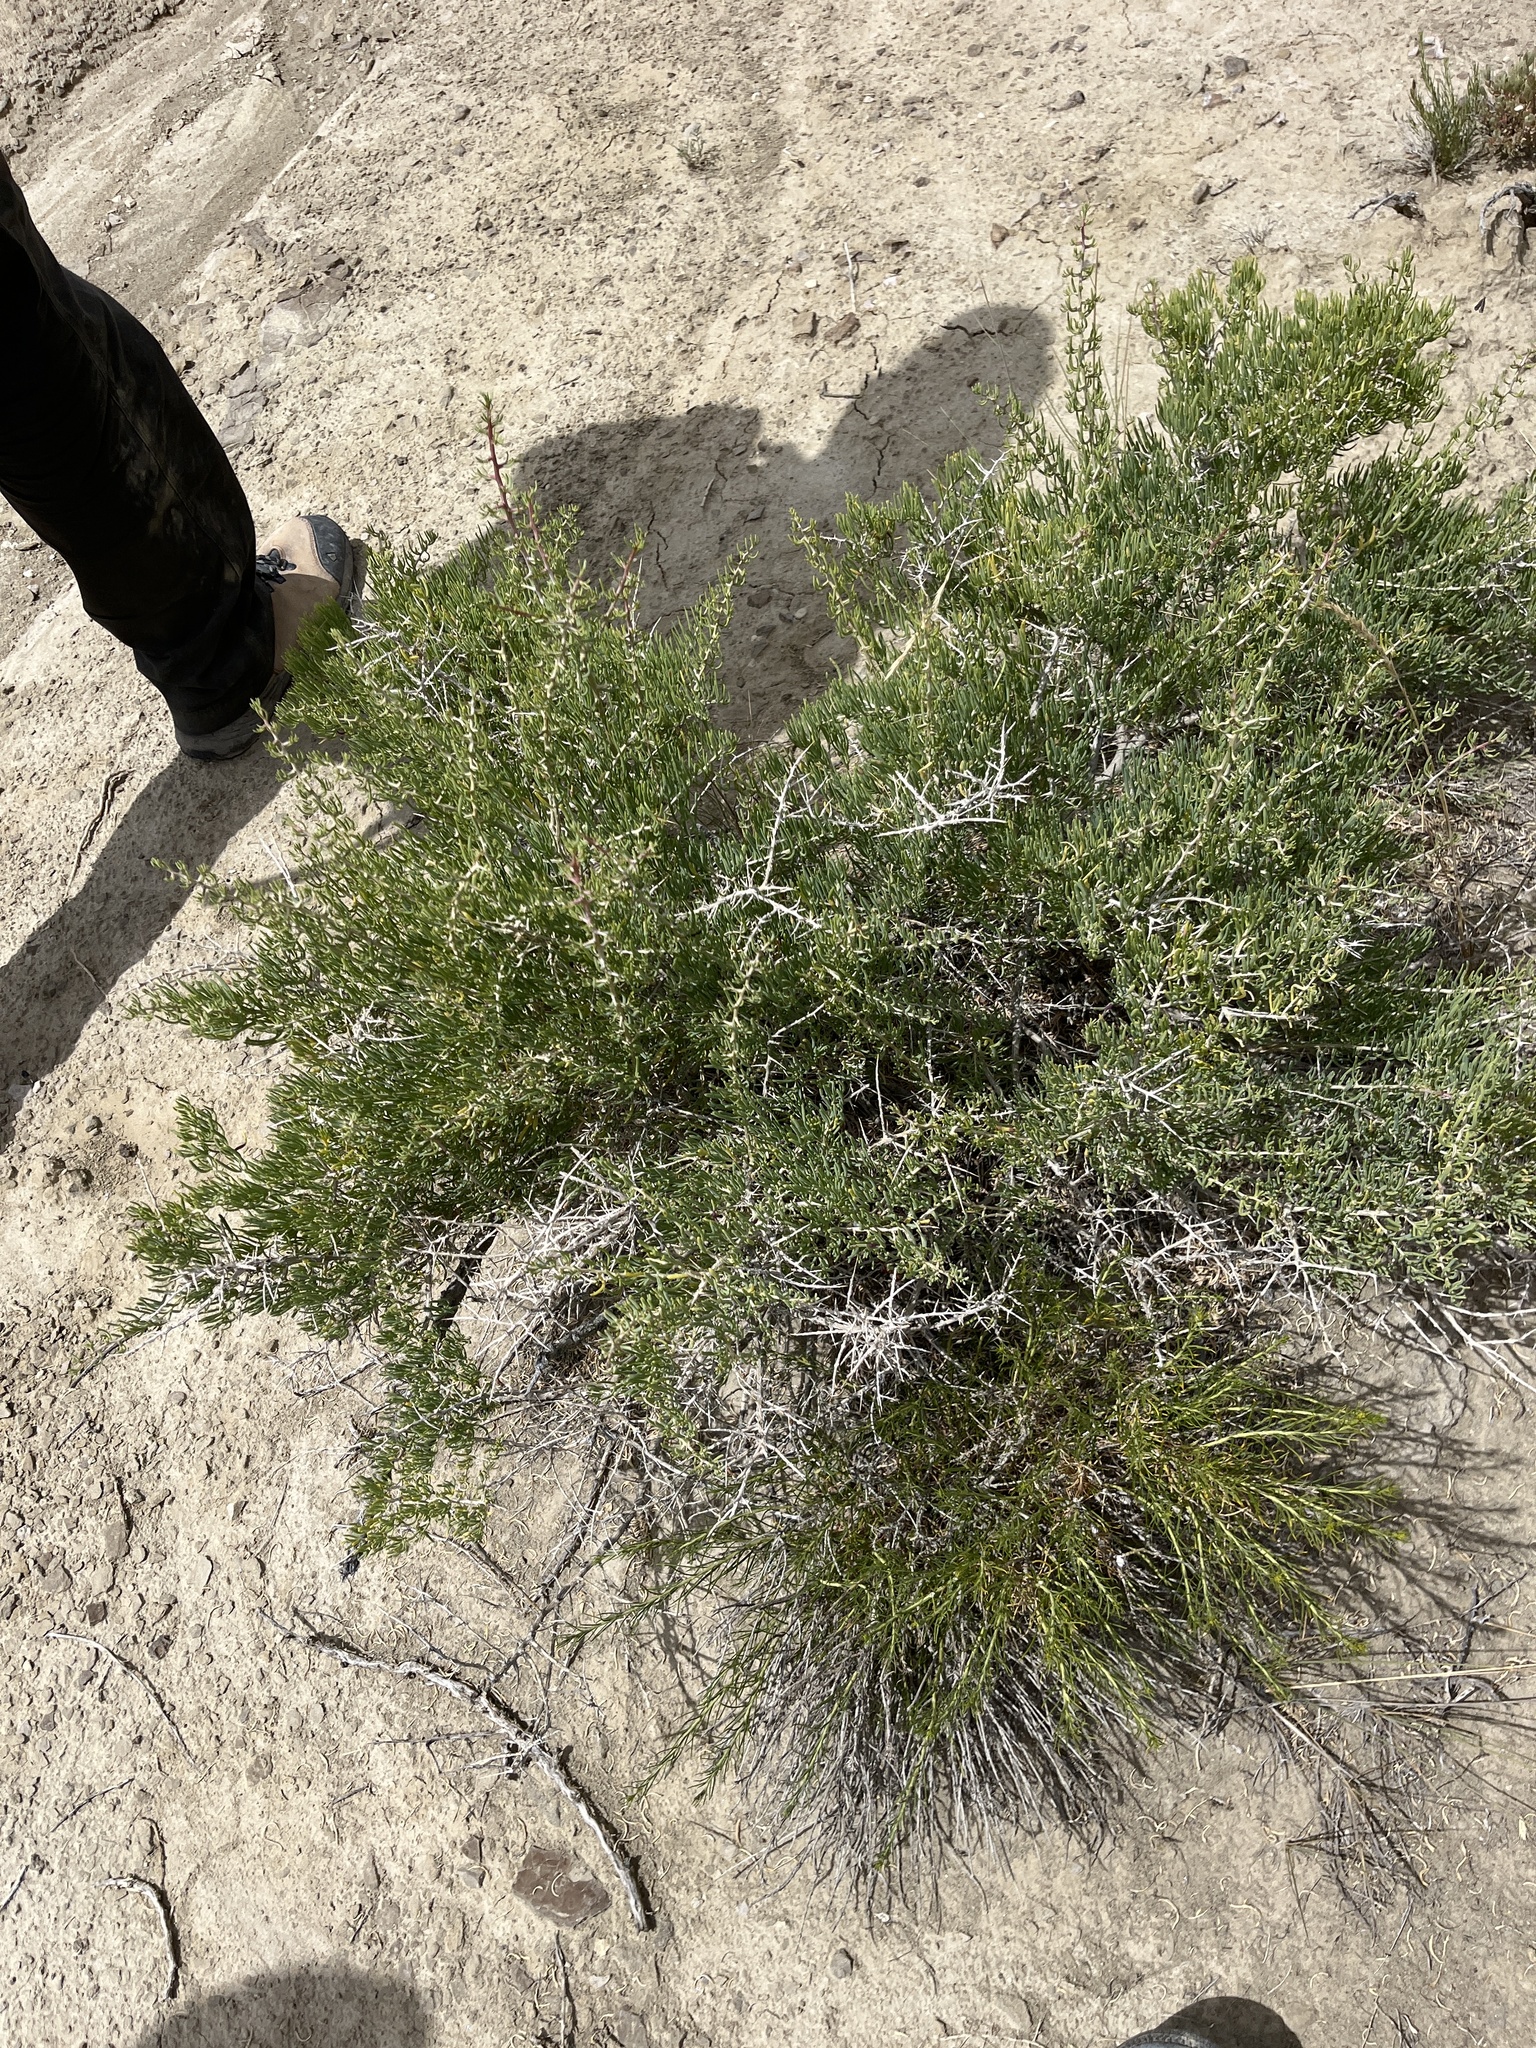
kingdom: Plantae
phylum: Tracheophyta
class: Magnoliopsida
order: Caryophyllales
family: Sarcobataceae
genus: Sarcobatus
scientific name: Sarcobatus vermiculatus
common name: Greasewood
